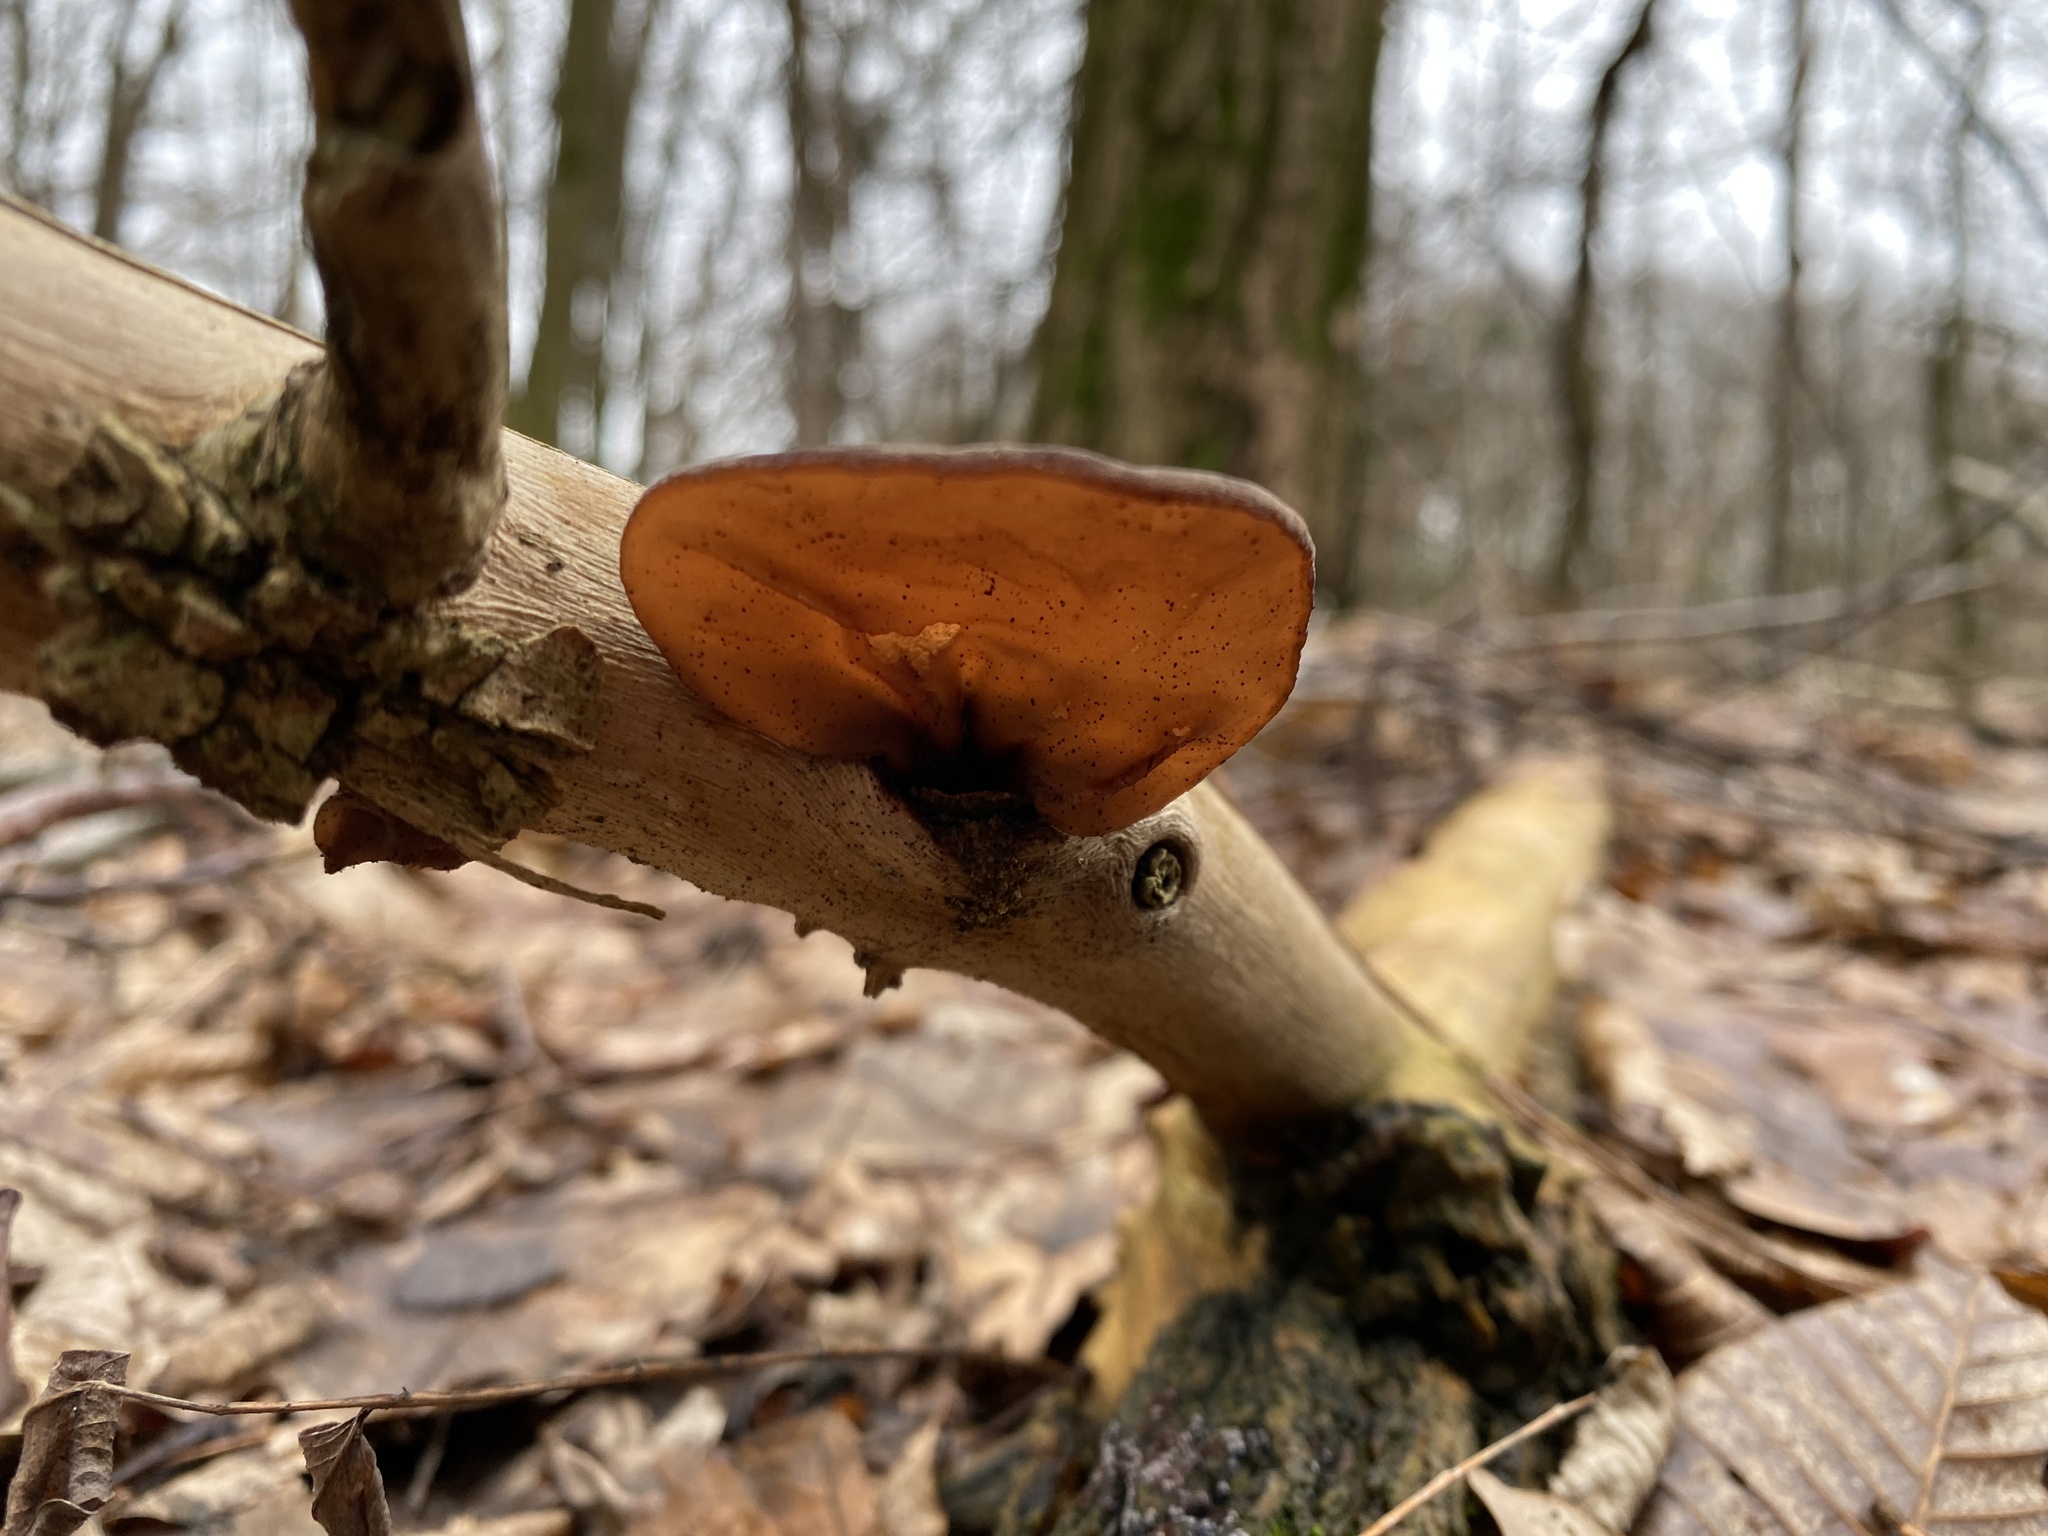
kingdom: Fungi
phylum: Basidiomycota
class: Agaricomycetes
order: Auriculariales
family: Auriculariaceae
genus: Auricularia
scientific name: Auricularia auricula-judae
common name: Jelly ear
